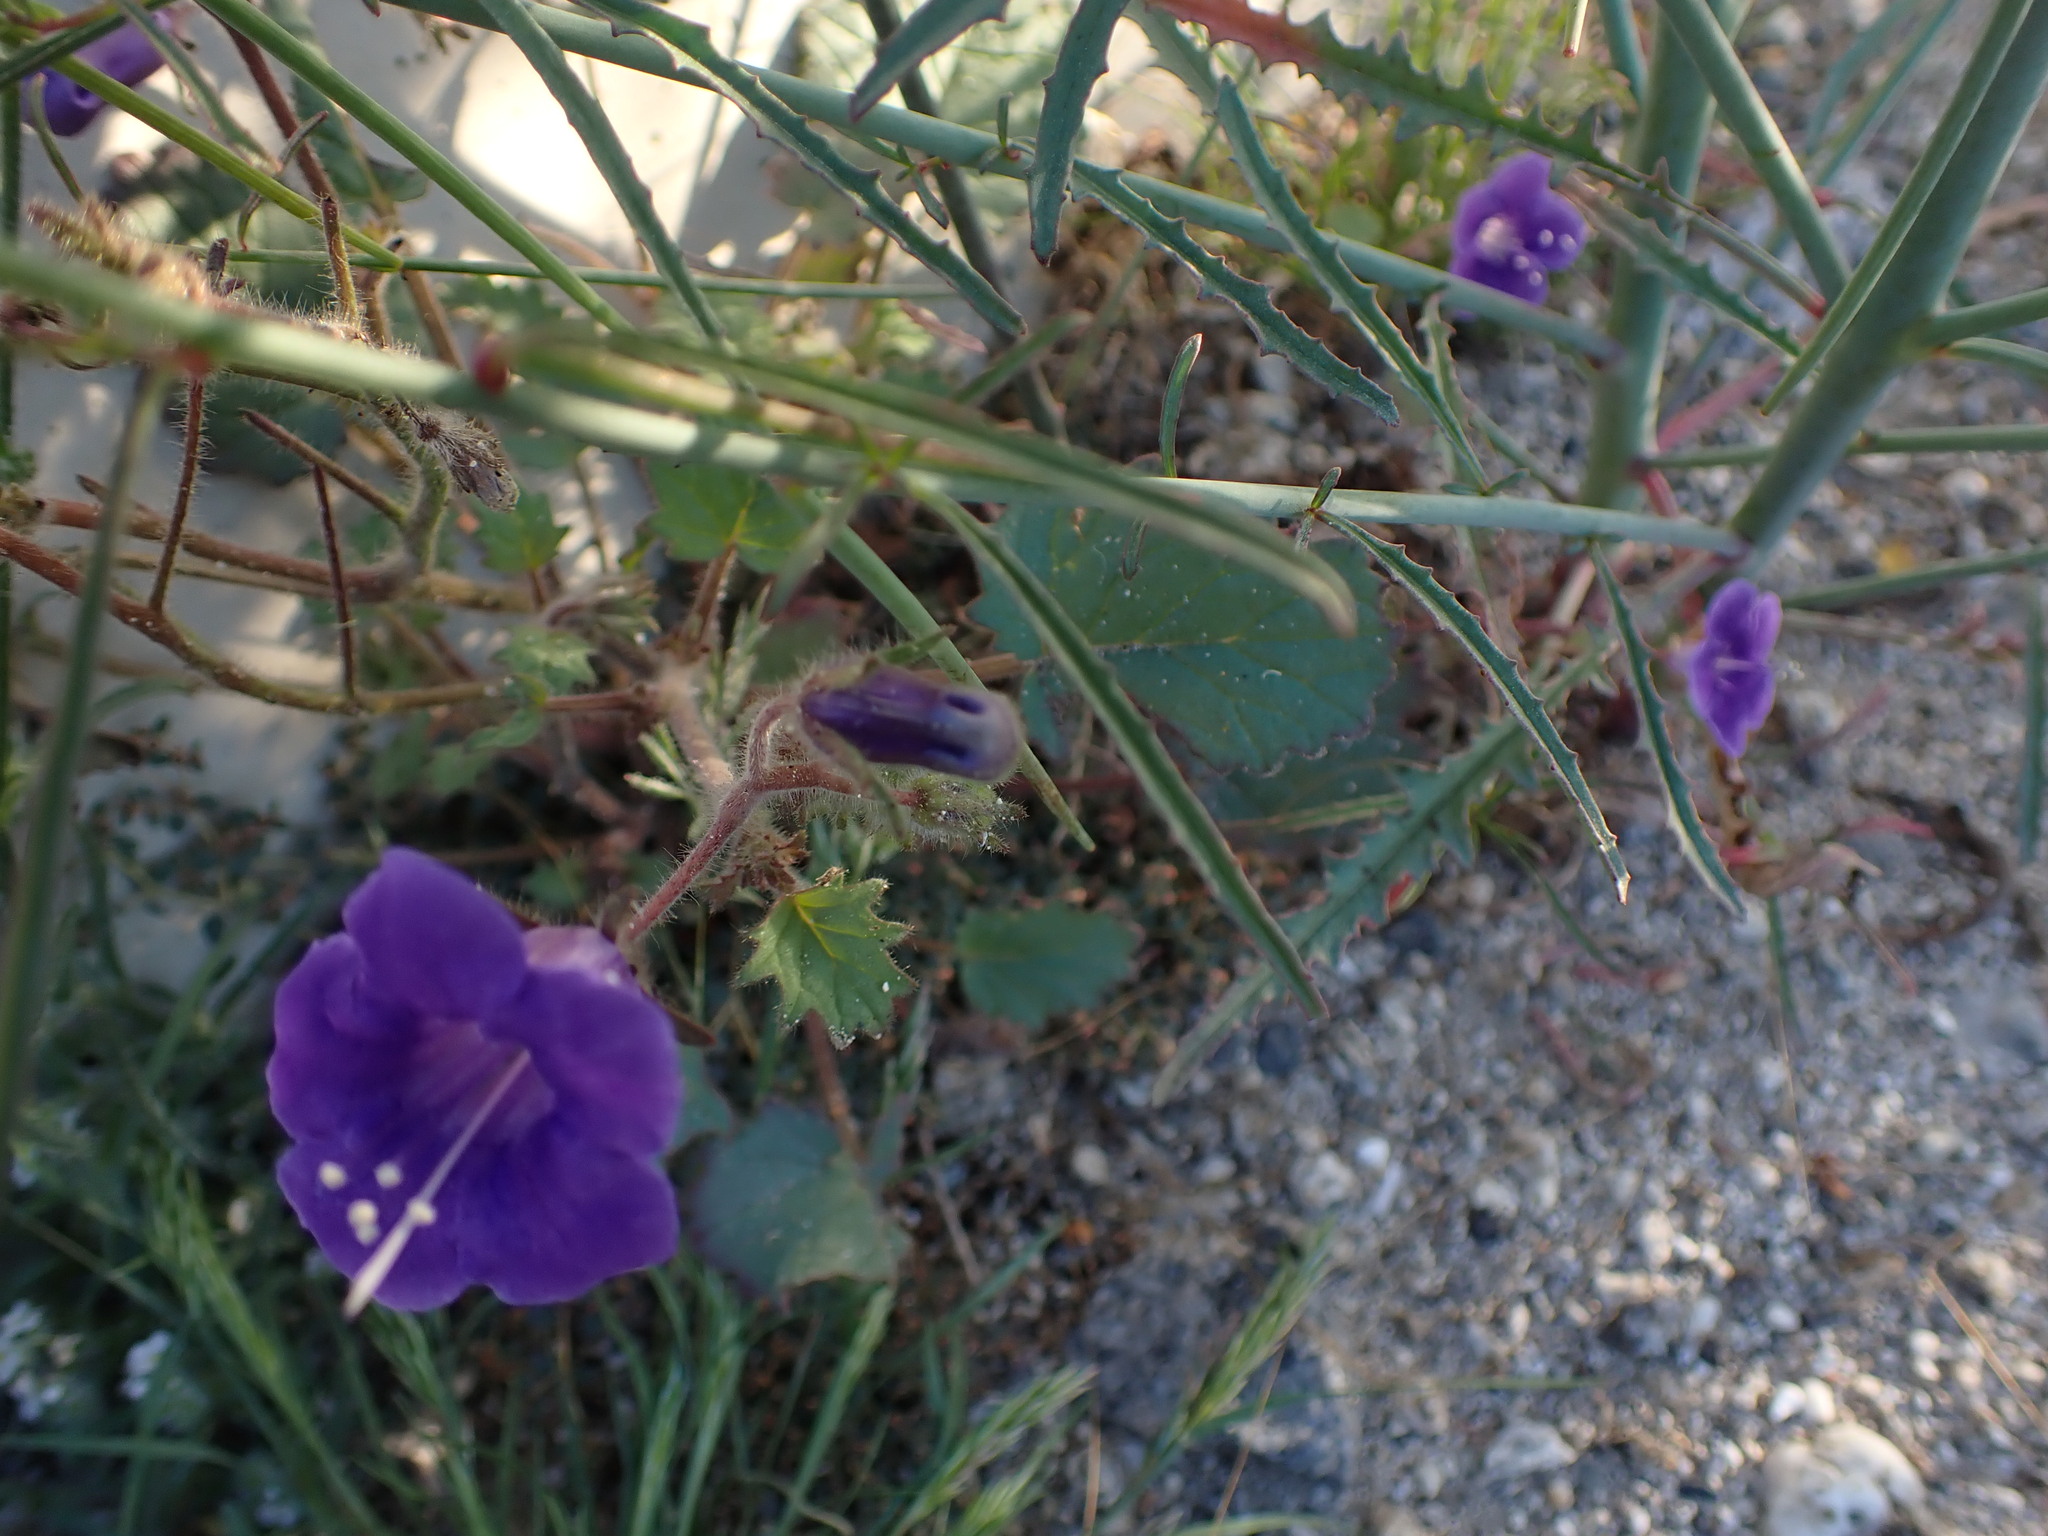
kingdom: Plantae
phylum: Tracheophyta
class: Magnoliopsida
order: Boraginales
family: Hydrophyllaceae
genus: Phacelia
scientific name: Phacelia minor
